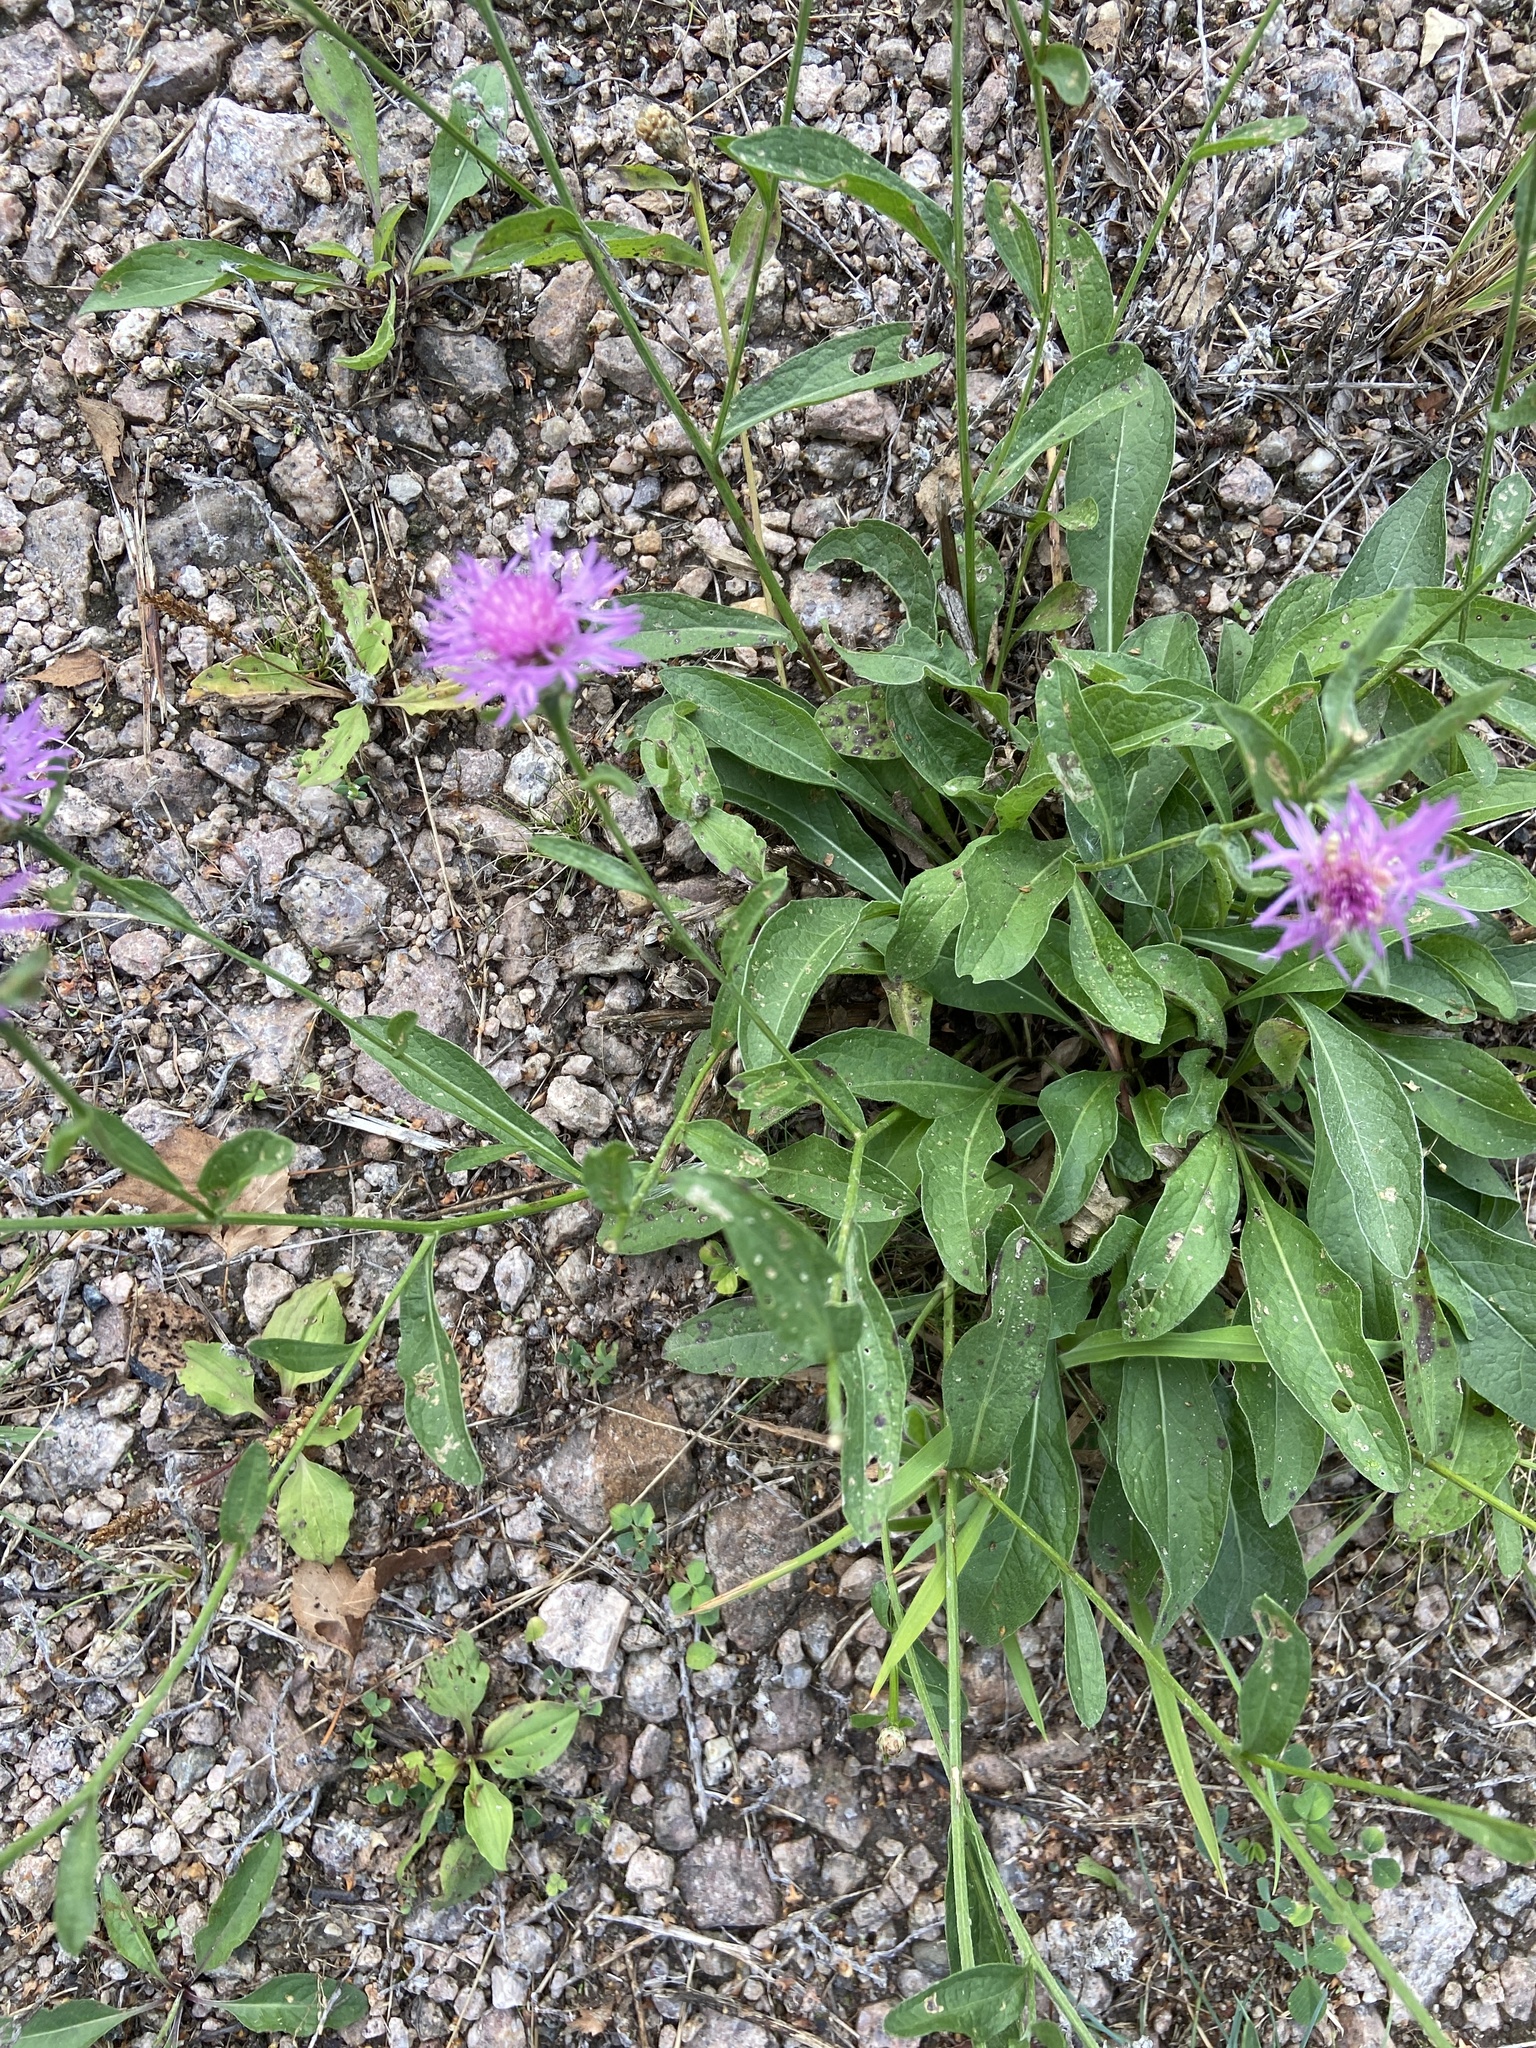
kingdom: Plantae
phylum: Tracheophyta
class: Magnoliopsida
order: Asterales
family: Asteraceae
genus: Centaurea
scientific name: Centaurea jacea
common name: Brown knapweed
